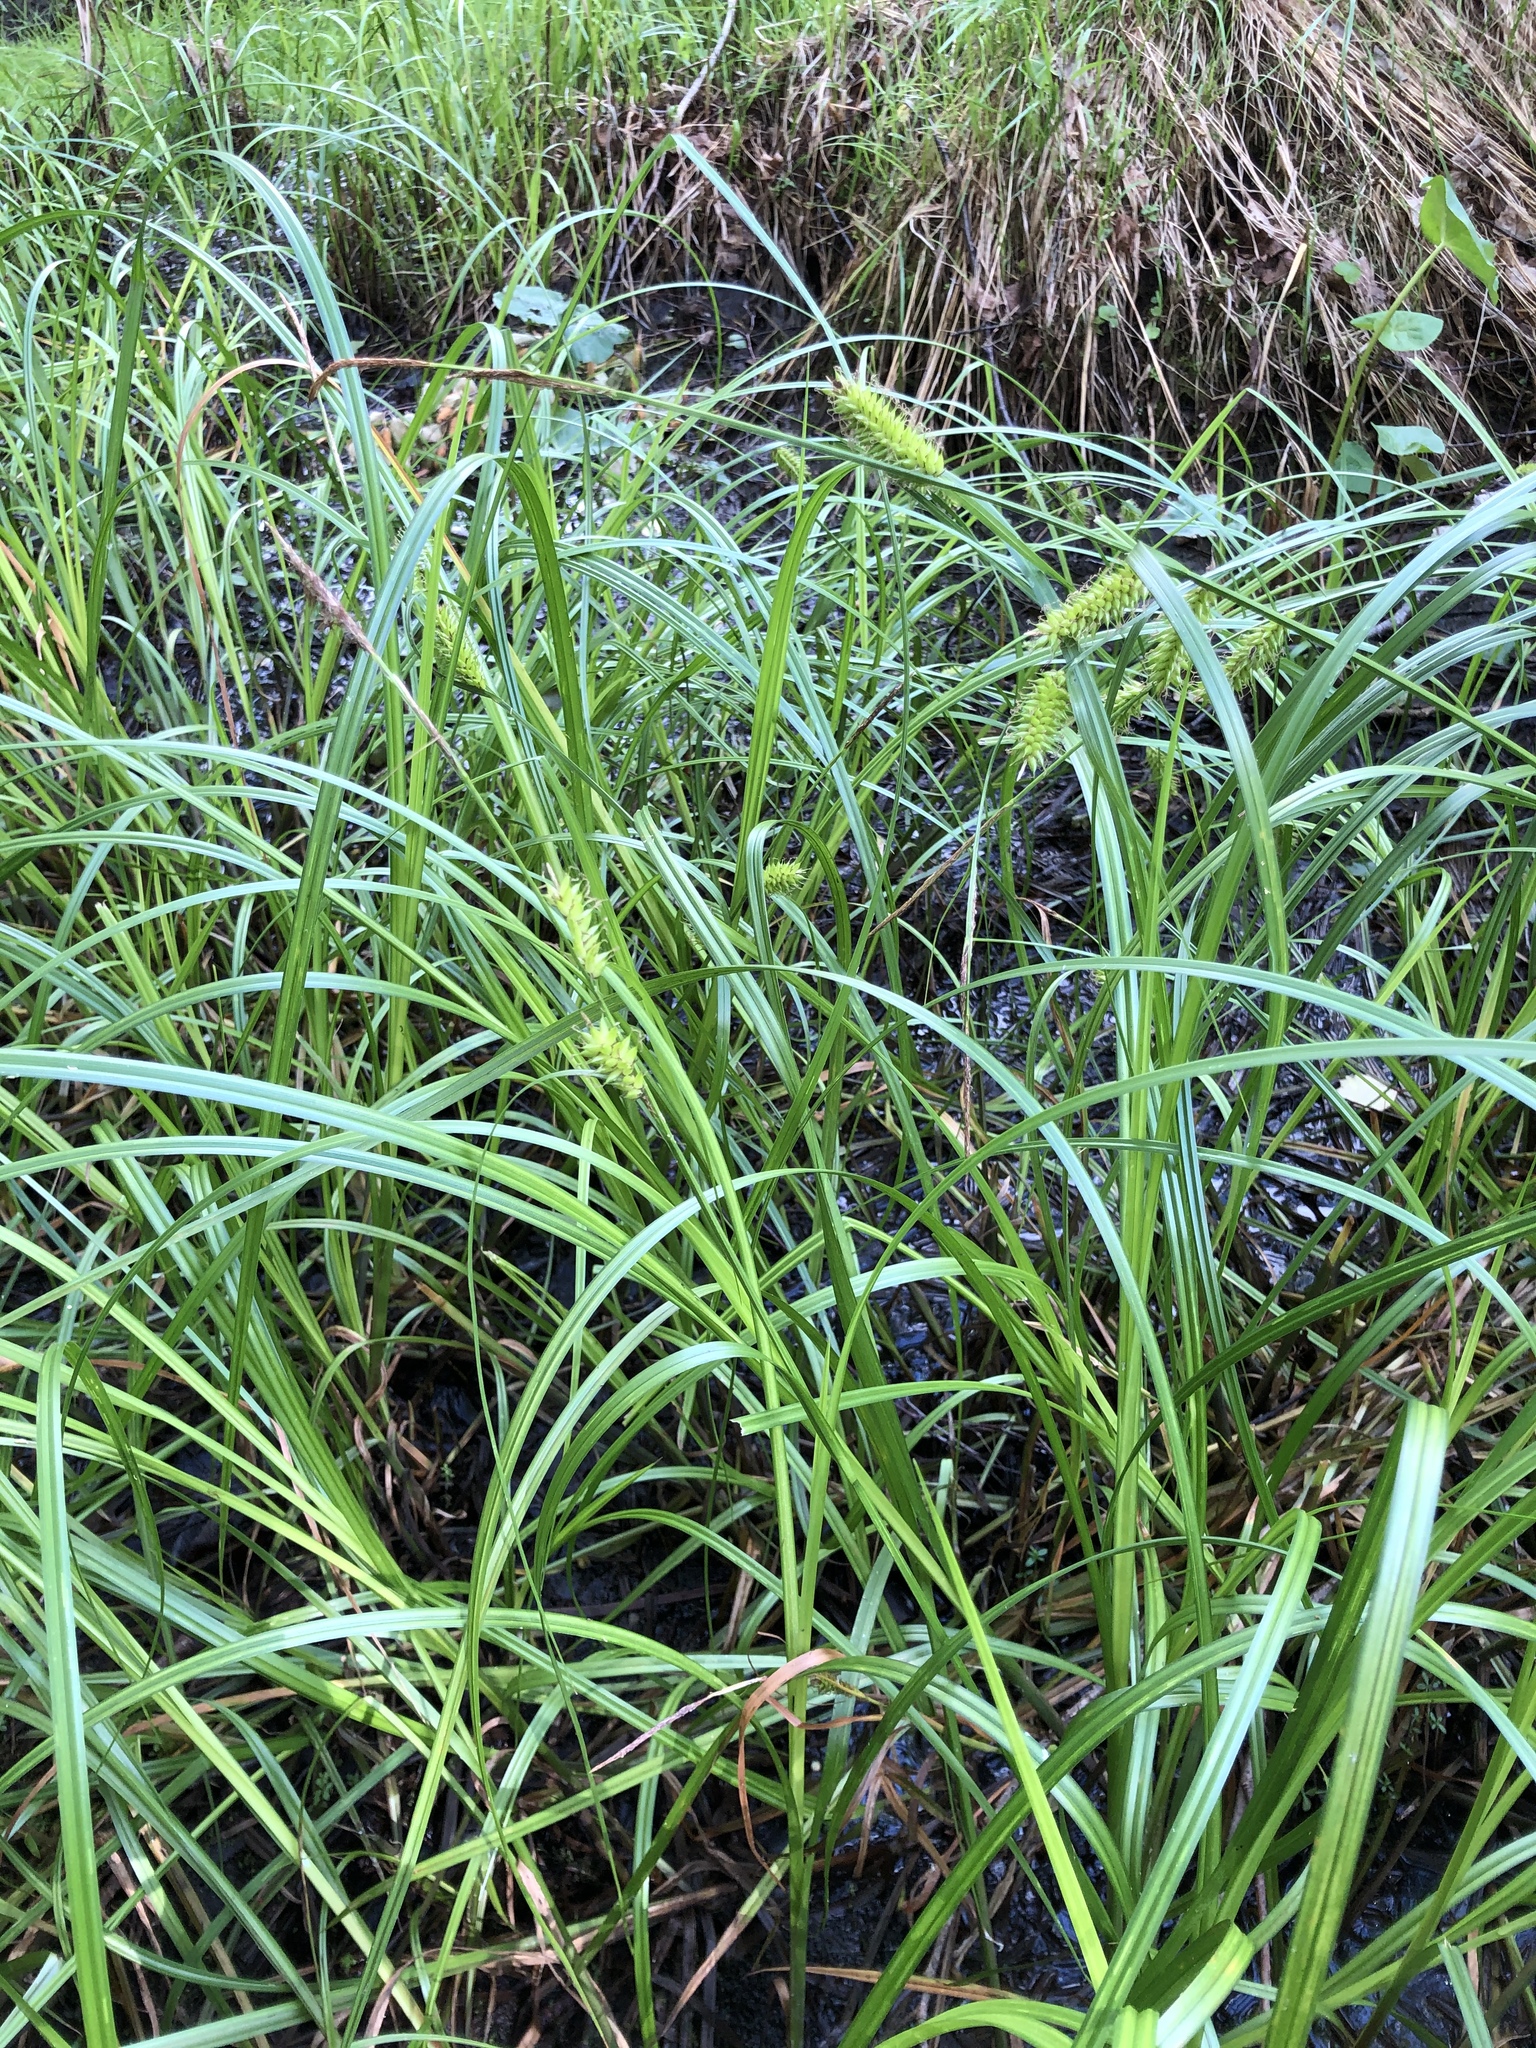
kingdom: Plantae
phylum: Tracheophyta
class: Liliopsida
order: Poales
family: Cyperaceae
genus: Carex
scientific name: Carex utriculata
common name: Beaked sedge
